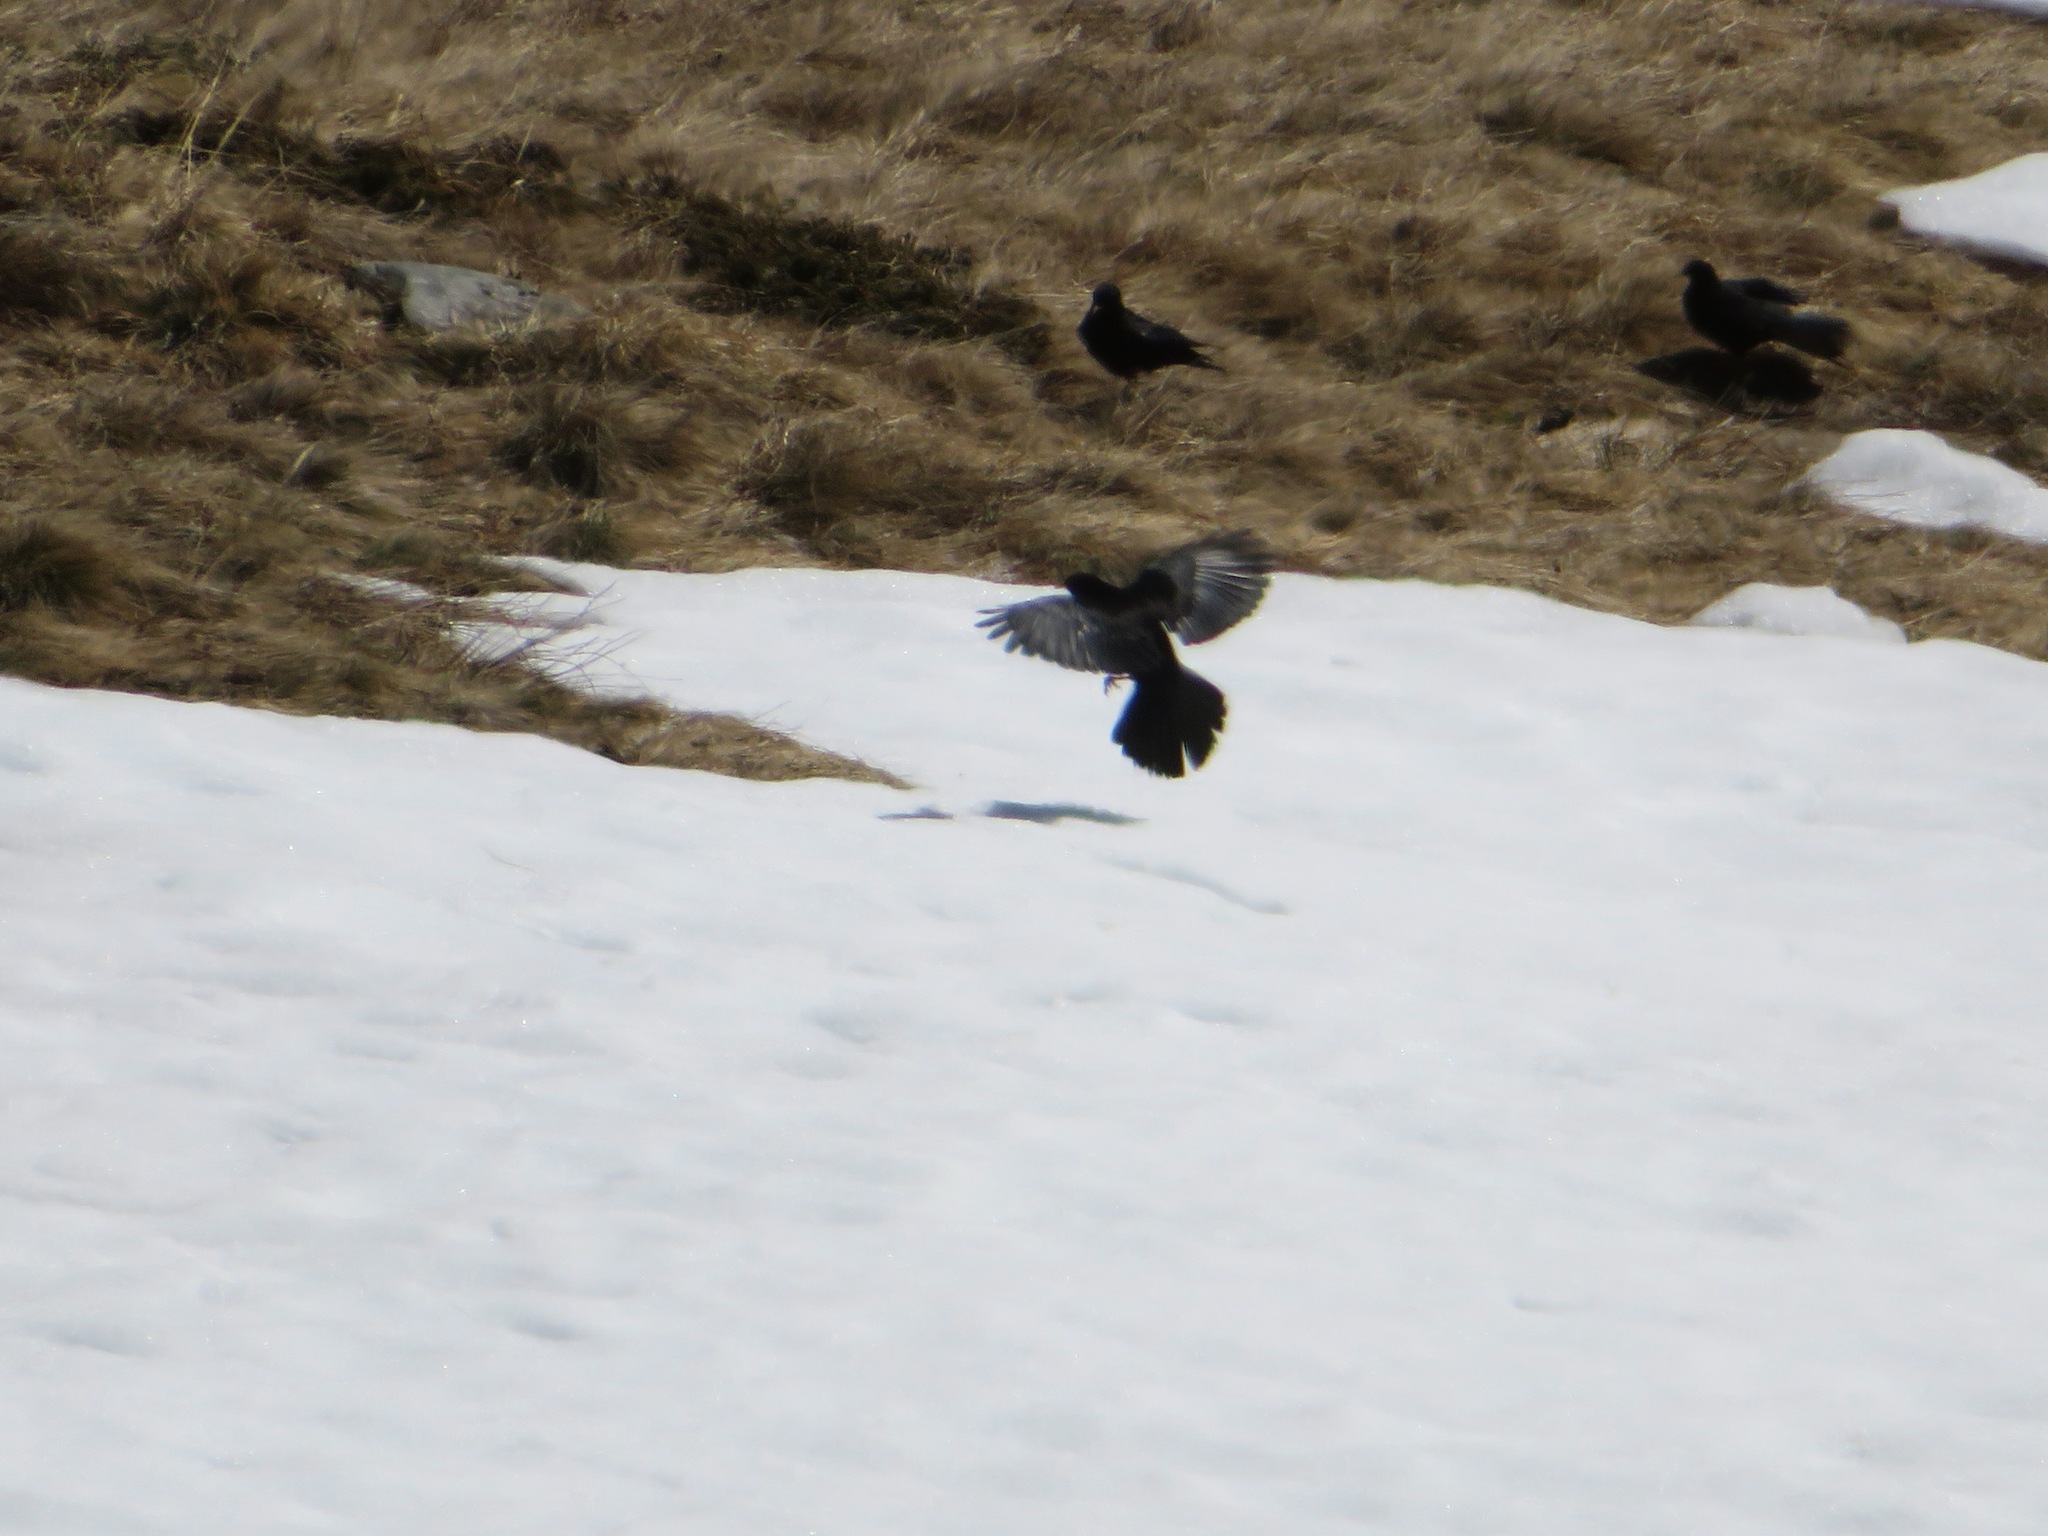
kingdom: Animalia
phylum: Chordata
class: Aves
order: Passeriformes
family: Corvidae
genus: Pyrrhocorax
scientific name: Pyrrhocorax graculus
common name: Alpine chough
